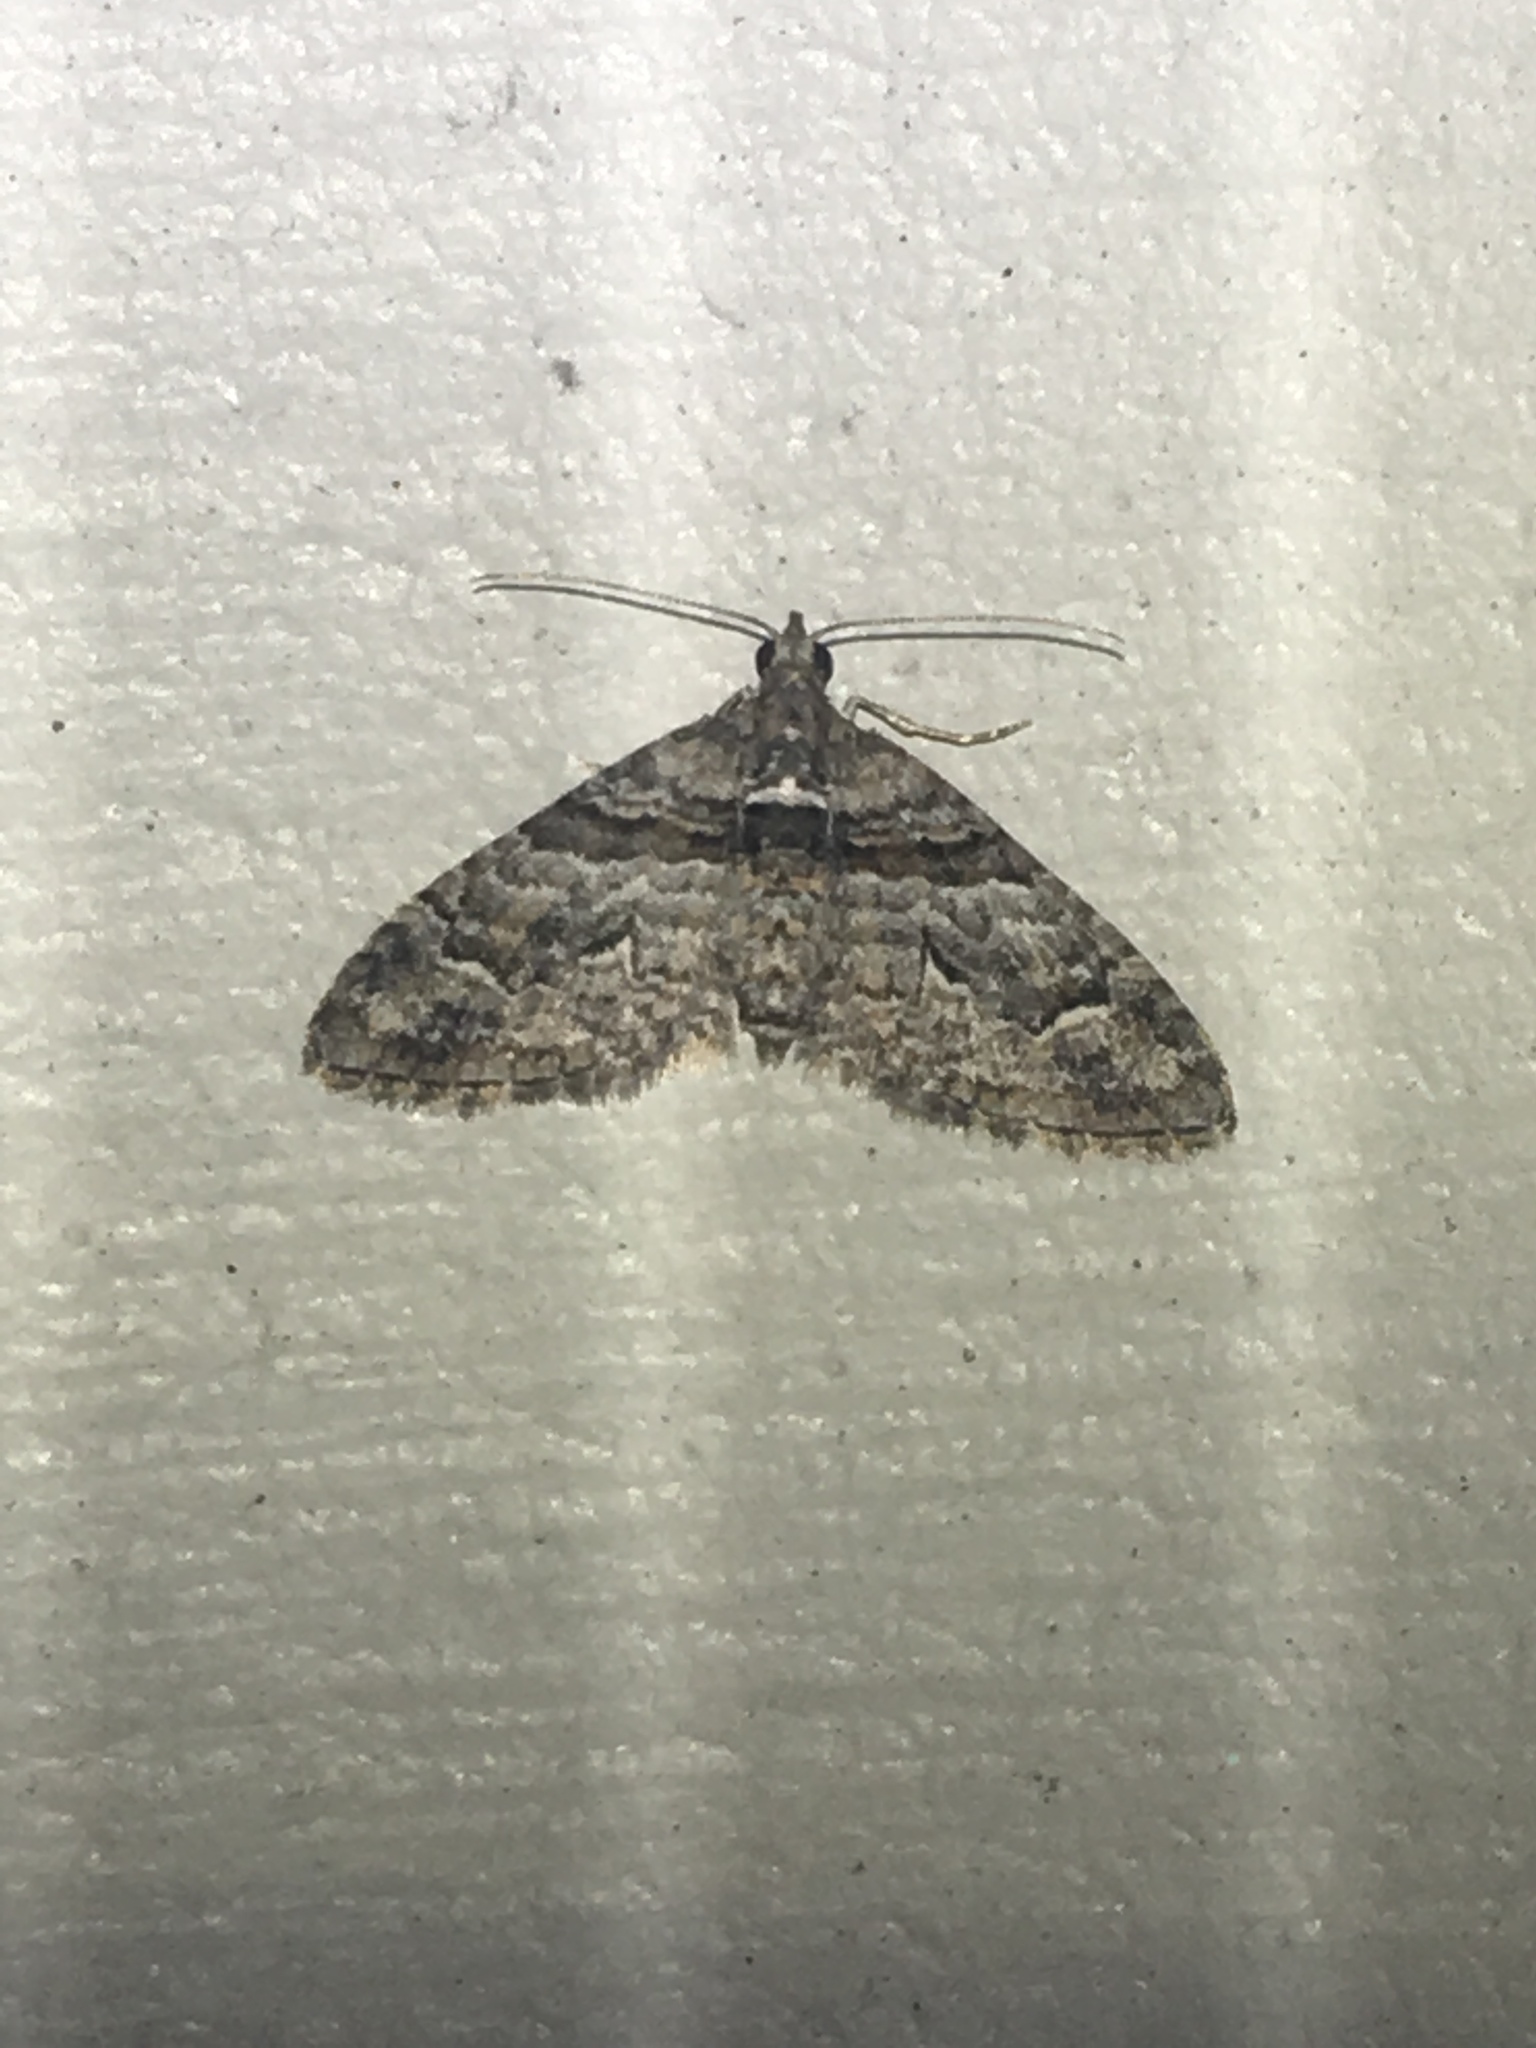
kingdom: Animalia
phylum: Arthropoda
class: Insecta
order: Lepidoptera
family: Geometridae
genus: Phrissogonus
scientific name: Phrissogonus laticostata
